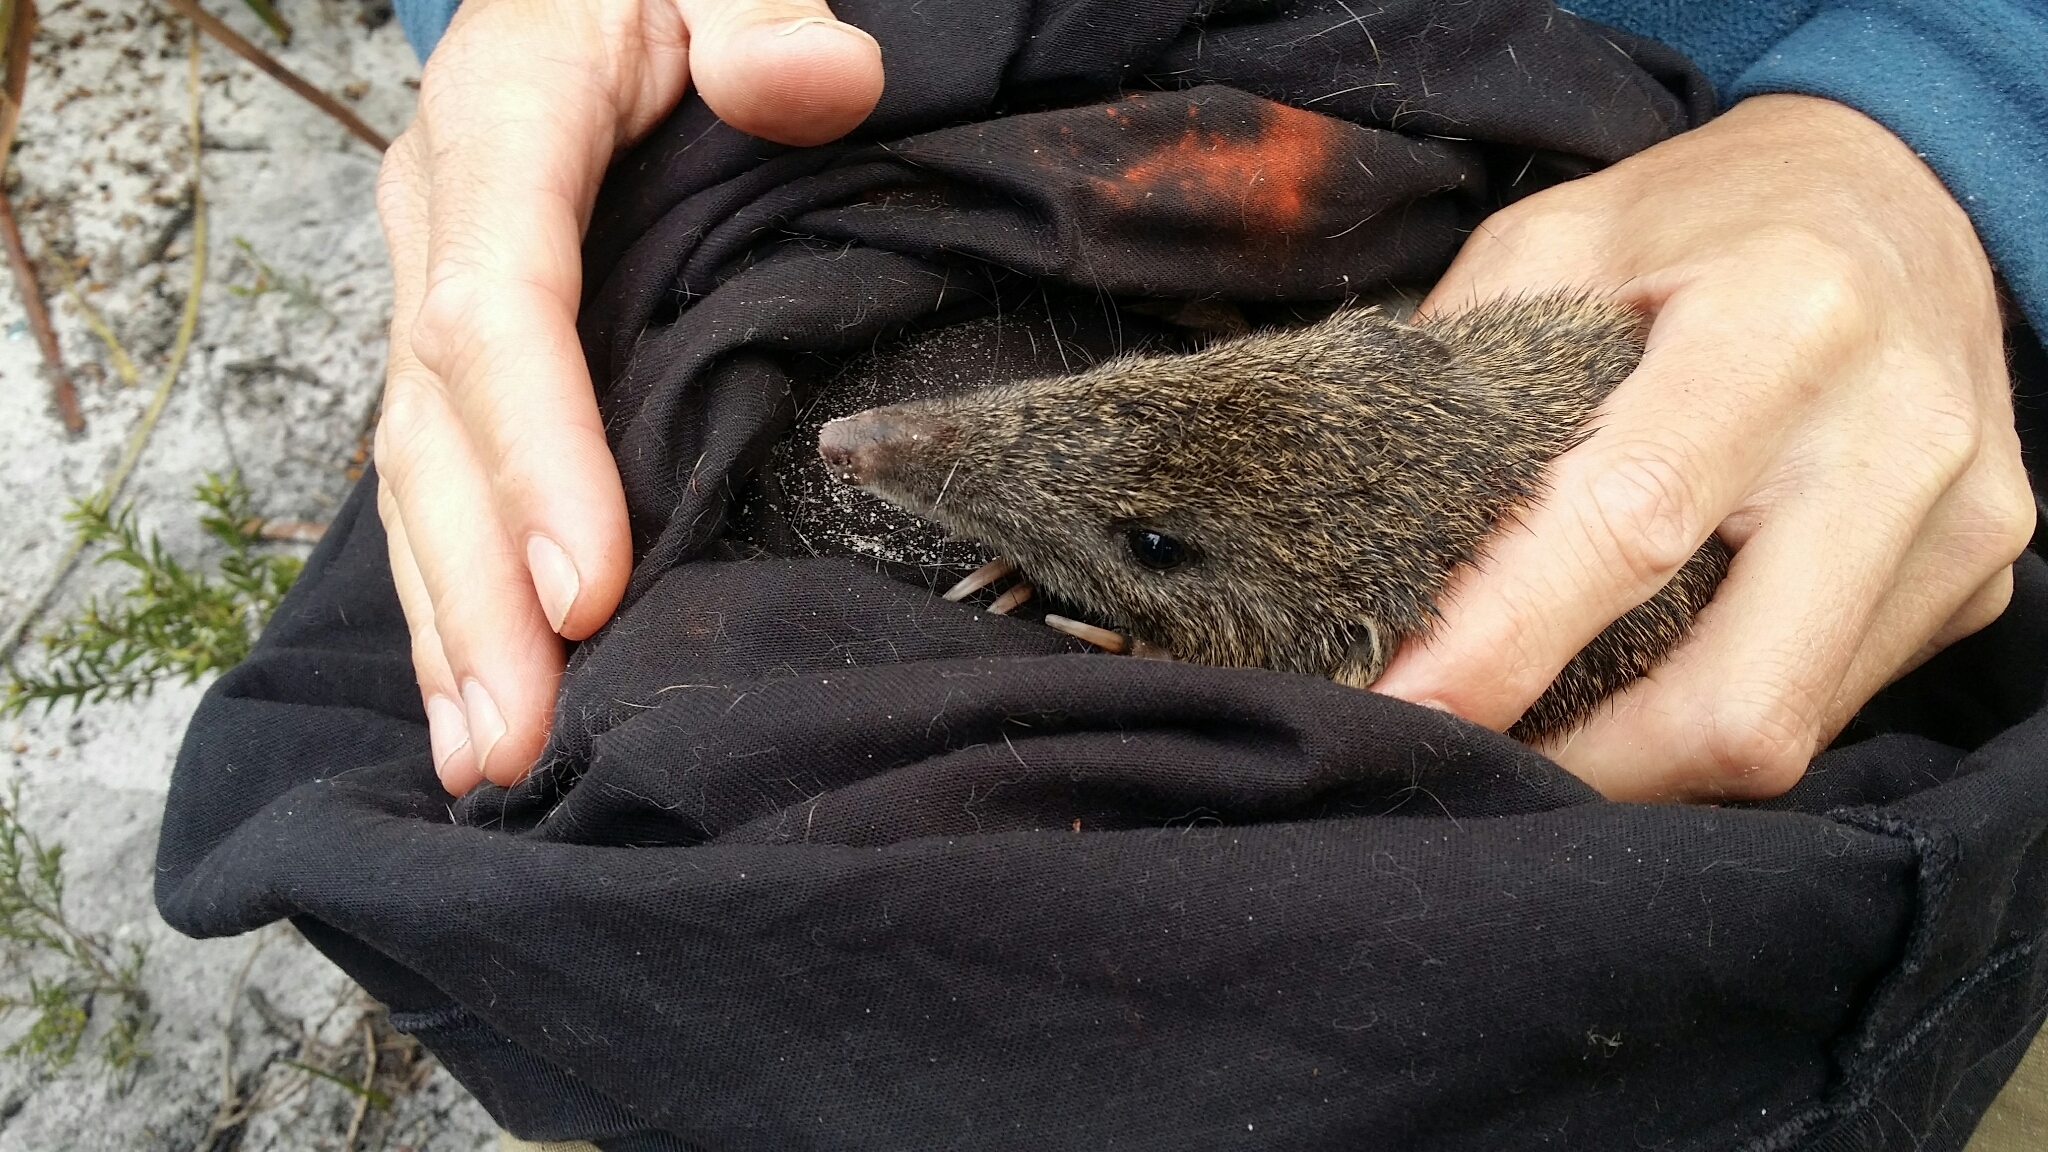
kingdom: Animalia
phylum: Chordata
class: Mammalia
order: Peramelemorphia
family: Peramelidae
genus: Isoodon
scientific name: Isoodon fusciventer
